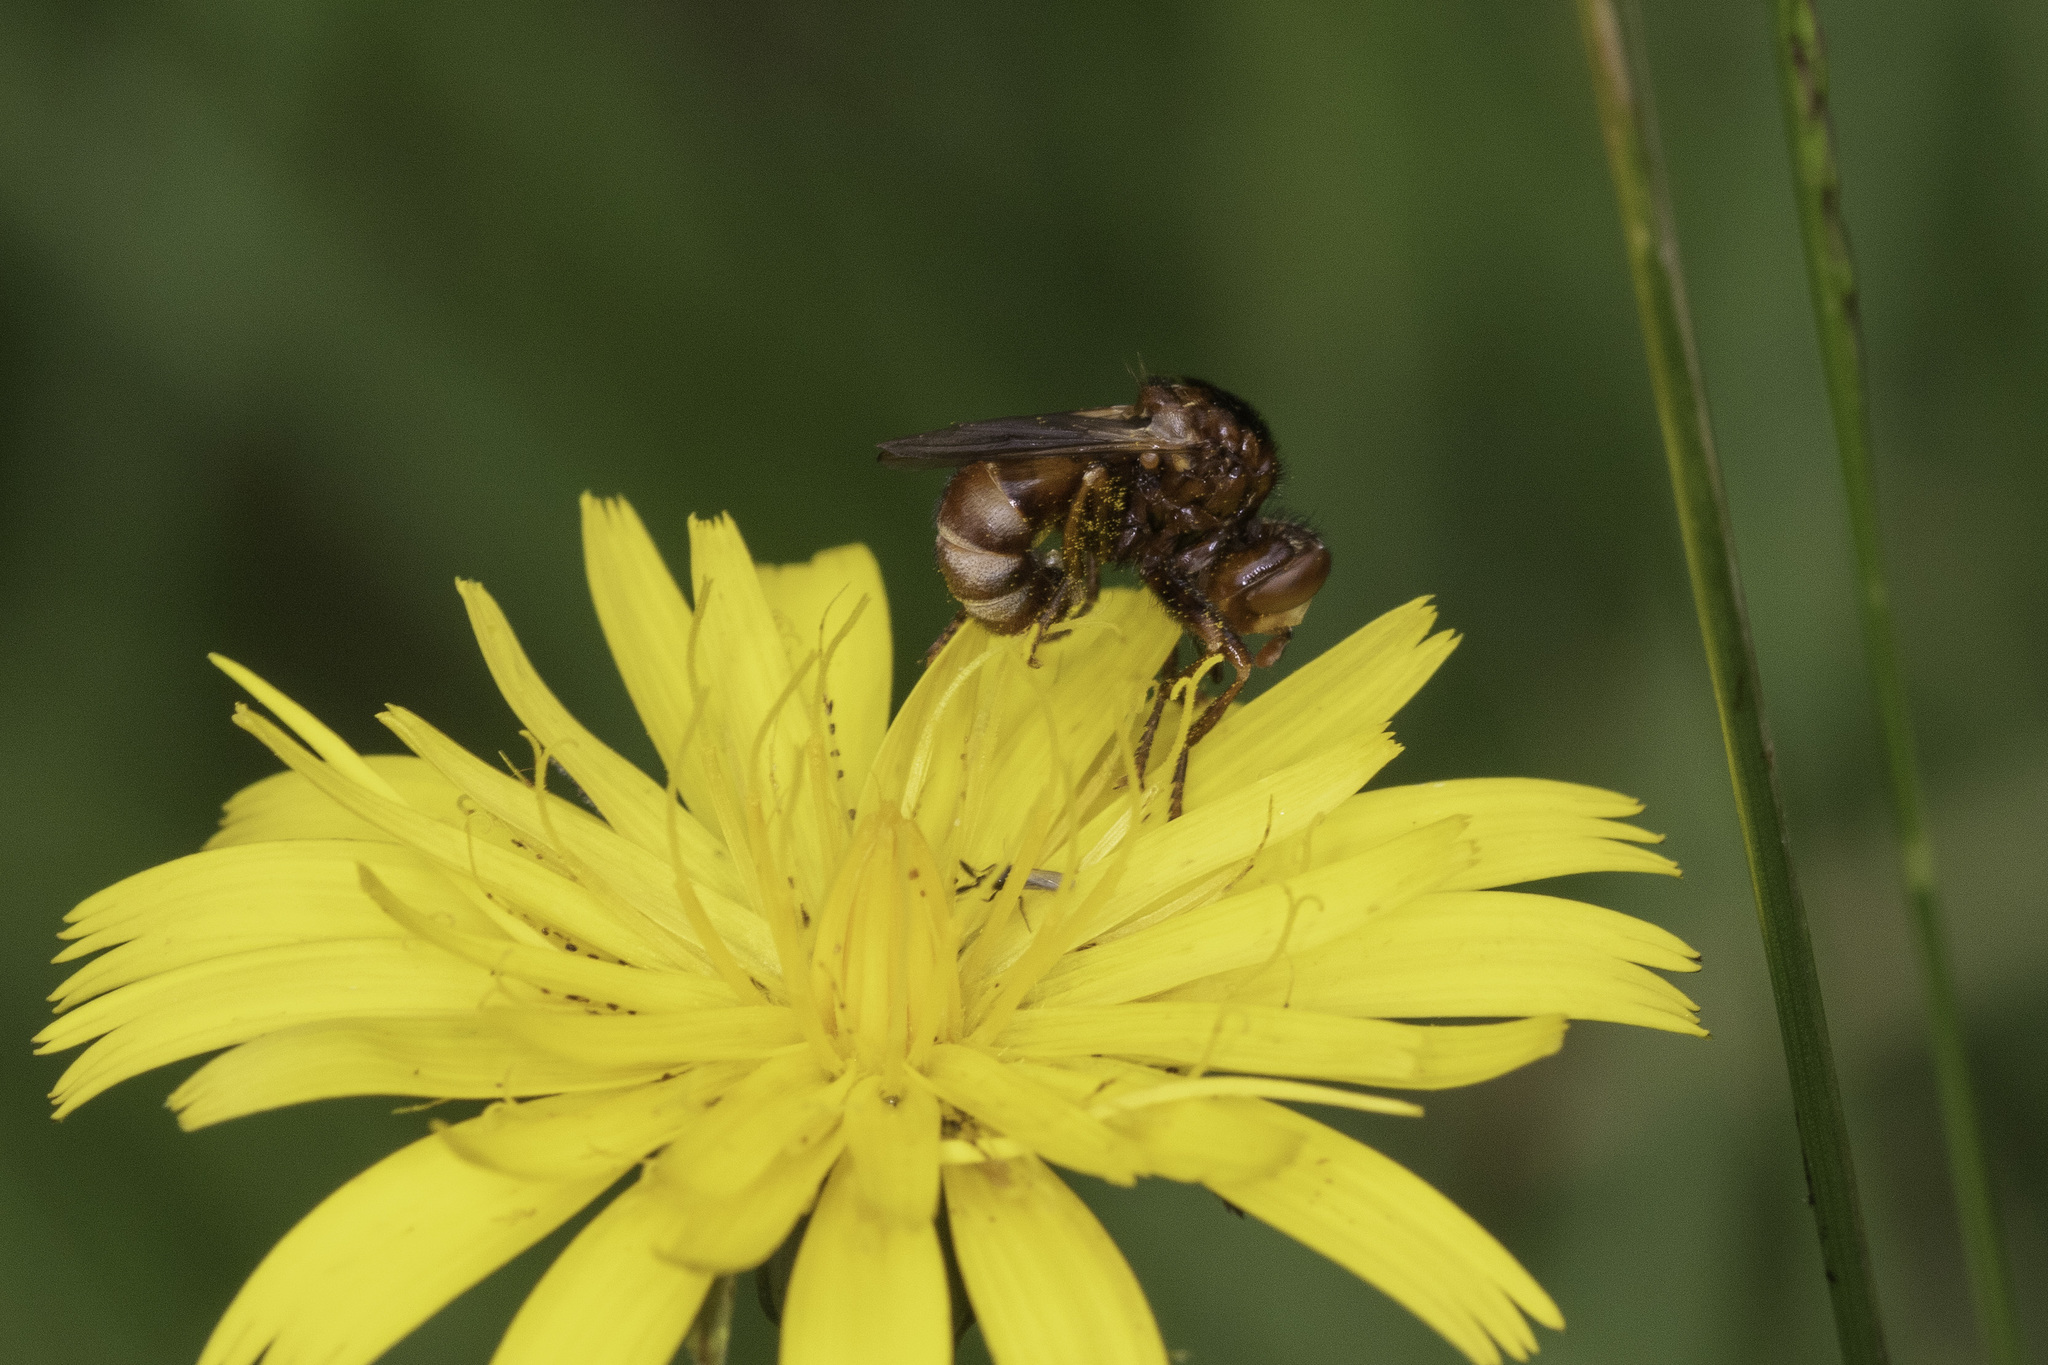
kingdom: Animalia
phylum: Arthropoda
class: Insecta
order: Diptera
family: Conopidae
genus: Sicus
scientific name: Sicus ferrugineus
